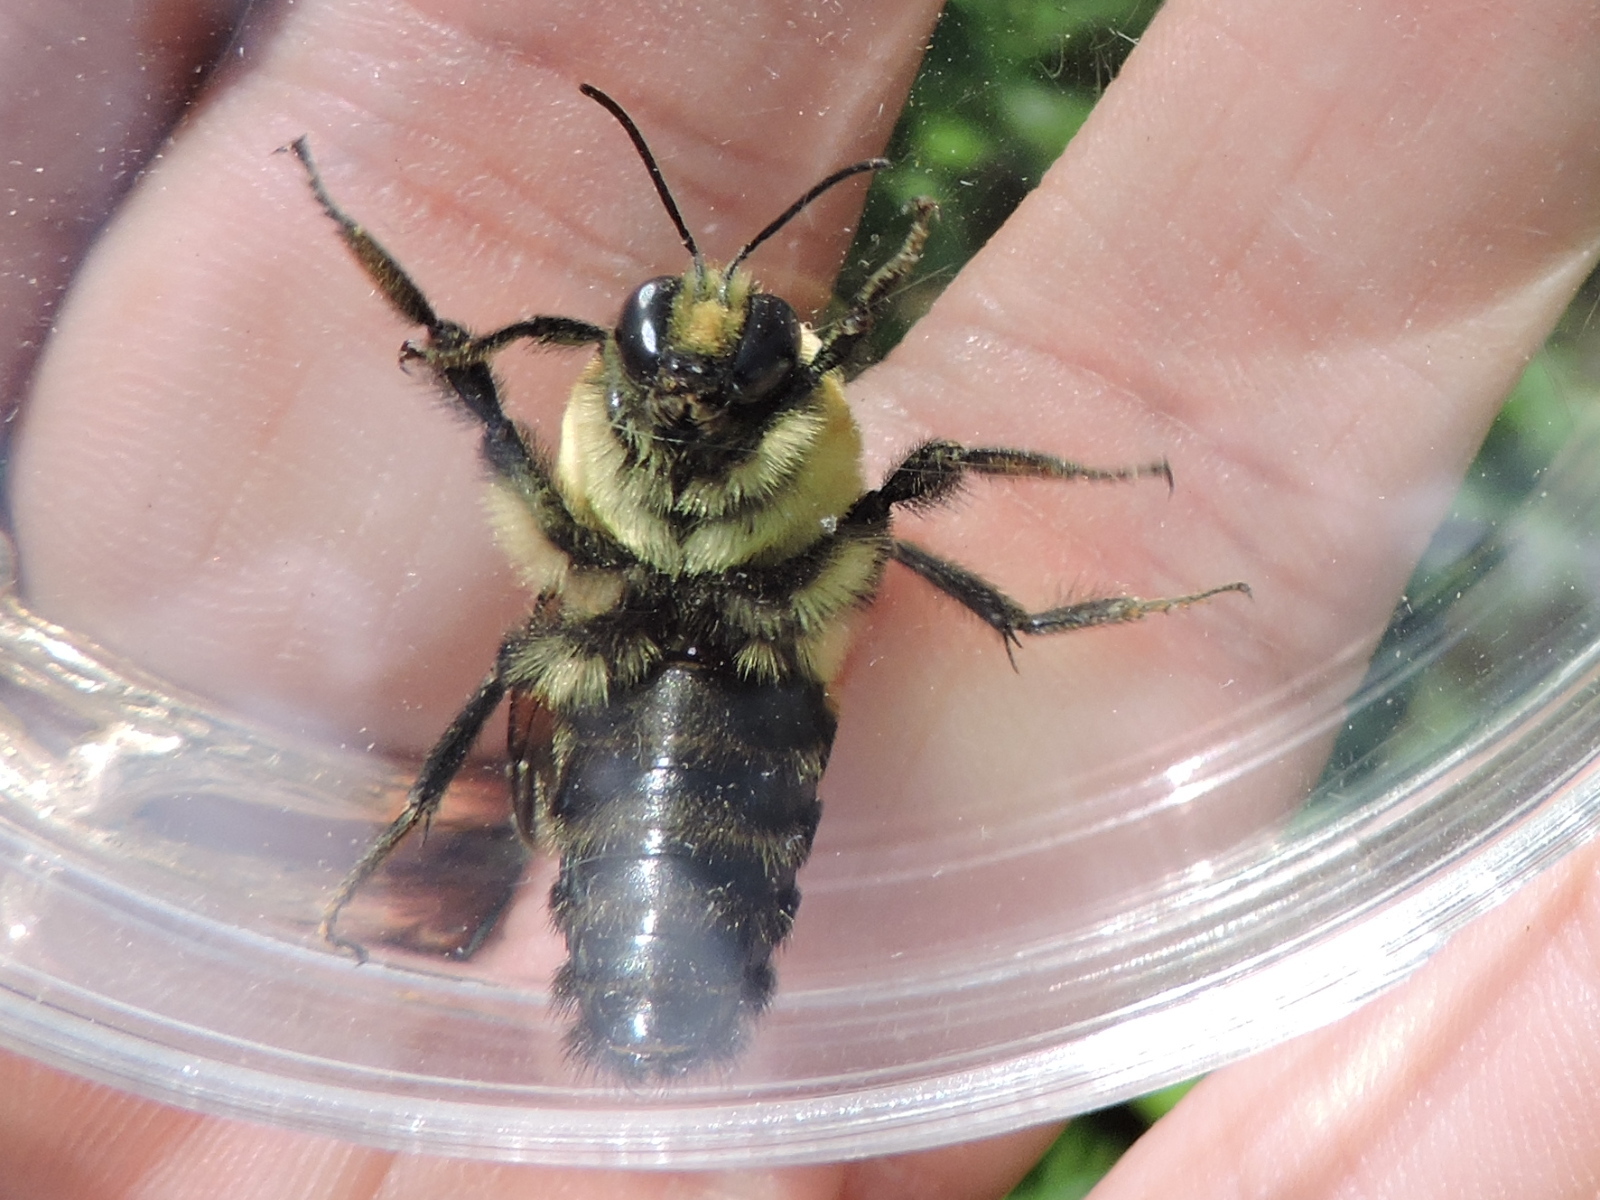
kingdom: Animalia
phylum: Arthropoda
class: Insecta
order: Hymenoptera
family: Apidae
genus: Bombus
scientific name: Bombus griseocollis
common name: Brown-belted bumble bee
